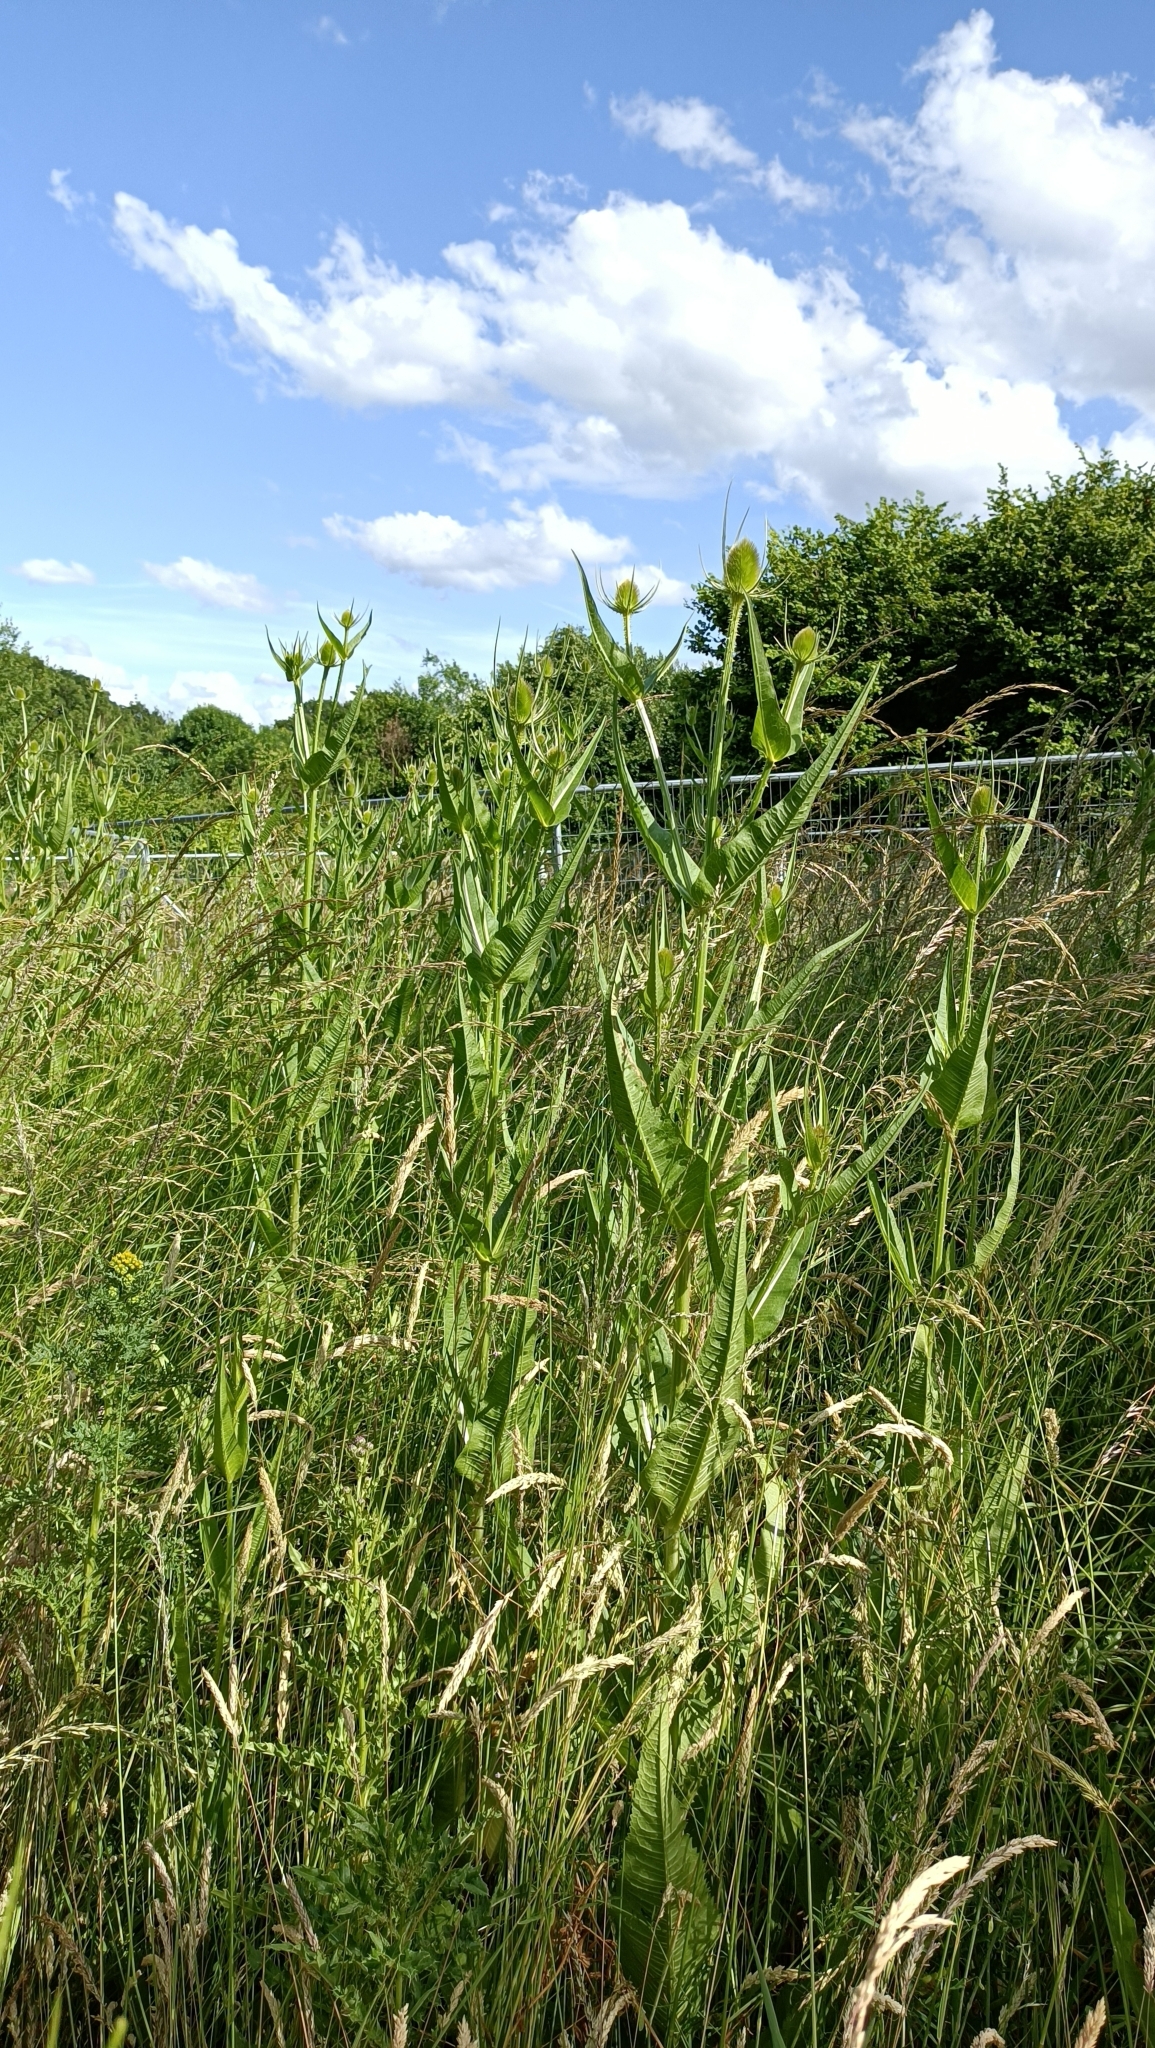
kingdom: Plantae
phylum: Tracheophyta
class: Magnoliopsida
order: Dipsacales
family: Caprifoliaceae
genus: Dipsacus
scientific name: Dipsacus fullonum
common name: Teasel
